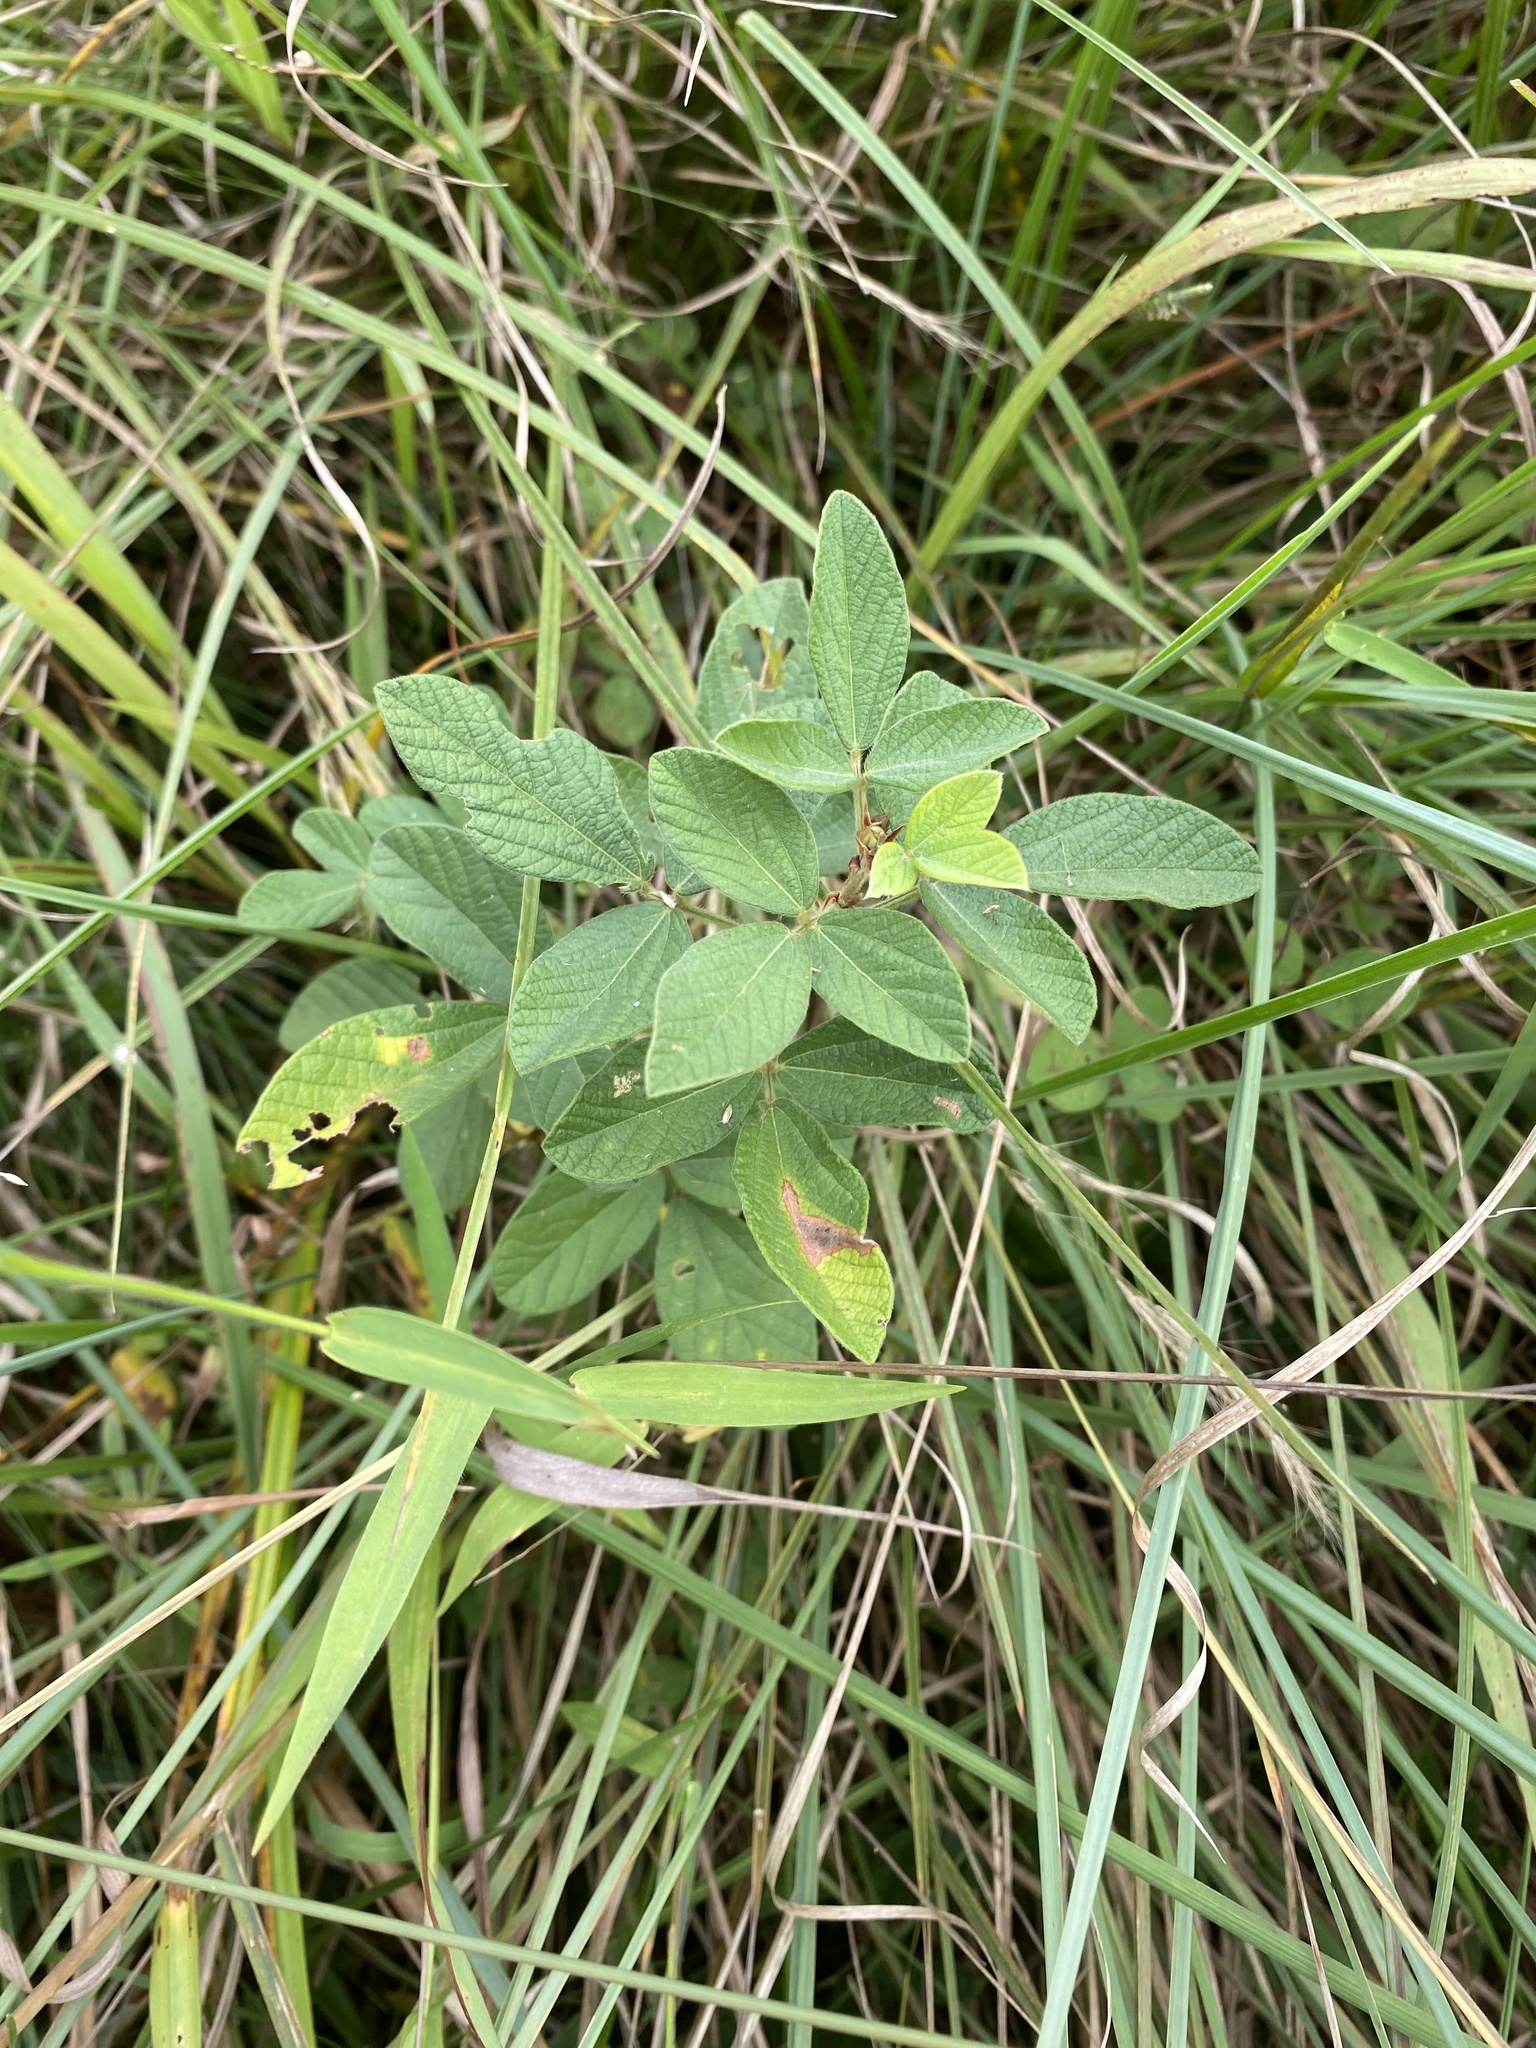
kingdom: Plantae
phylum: Tracheophyta
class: Magnoliopsida
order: Fabales
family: Fabaceae
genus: Eriosema
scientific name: Eriosema parviflorum
